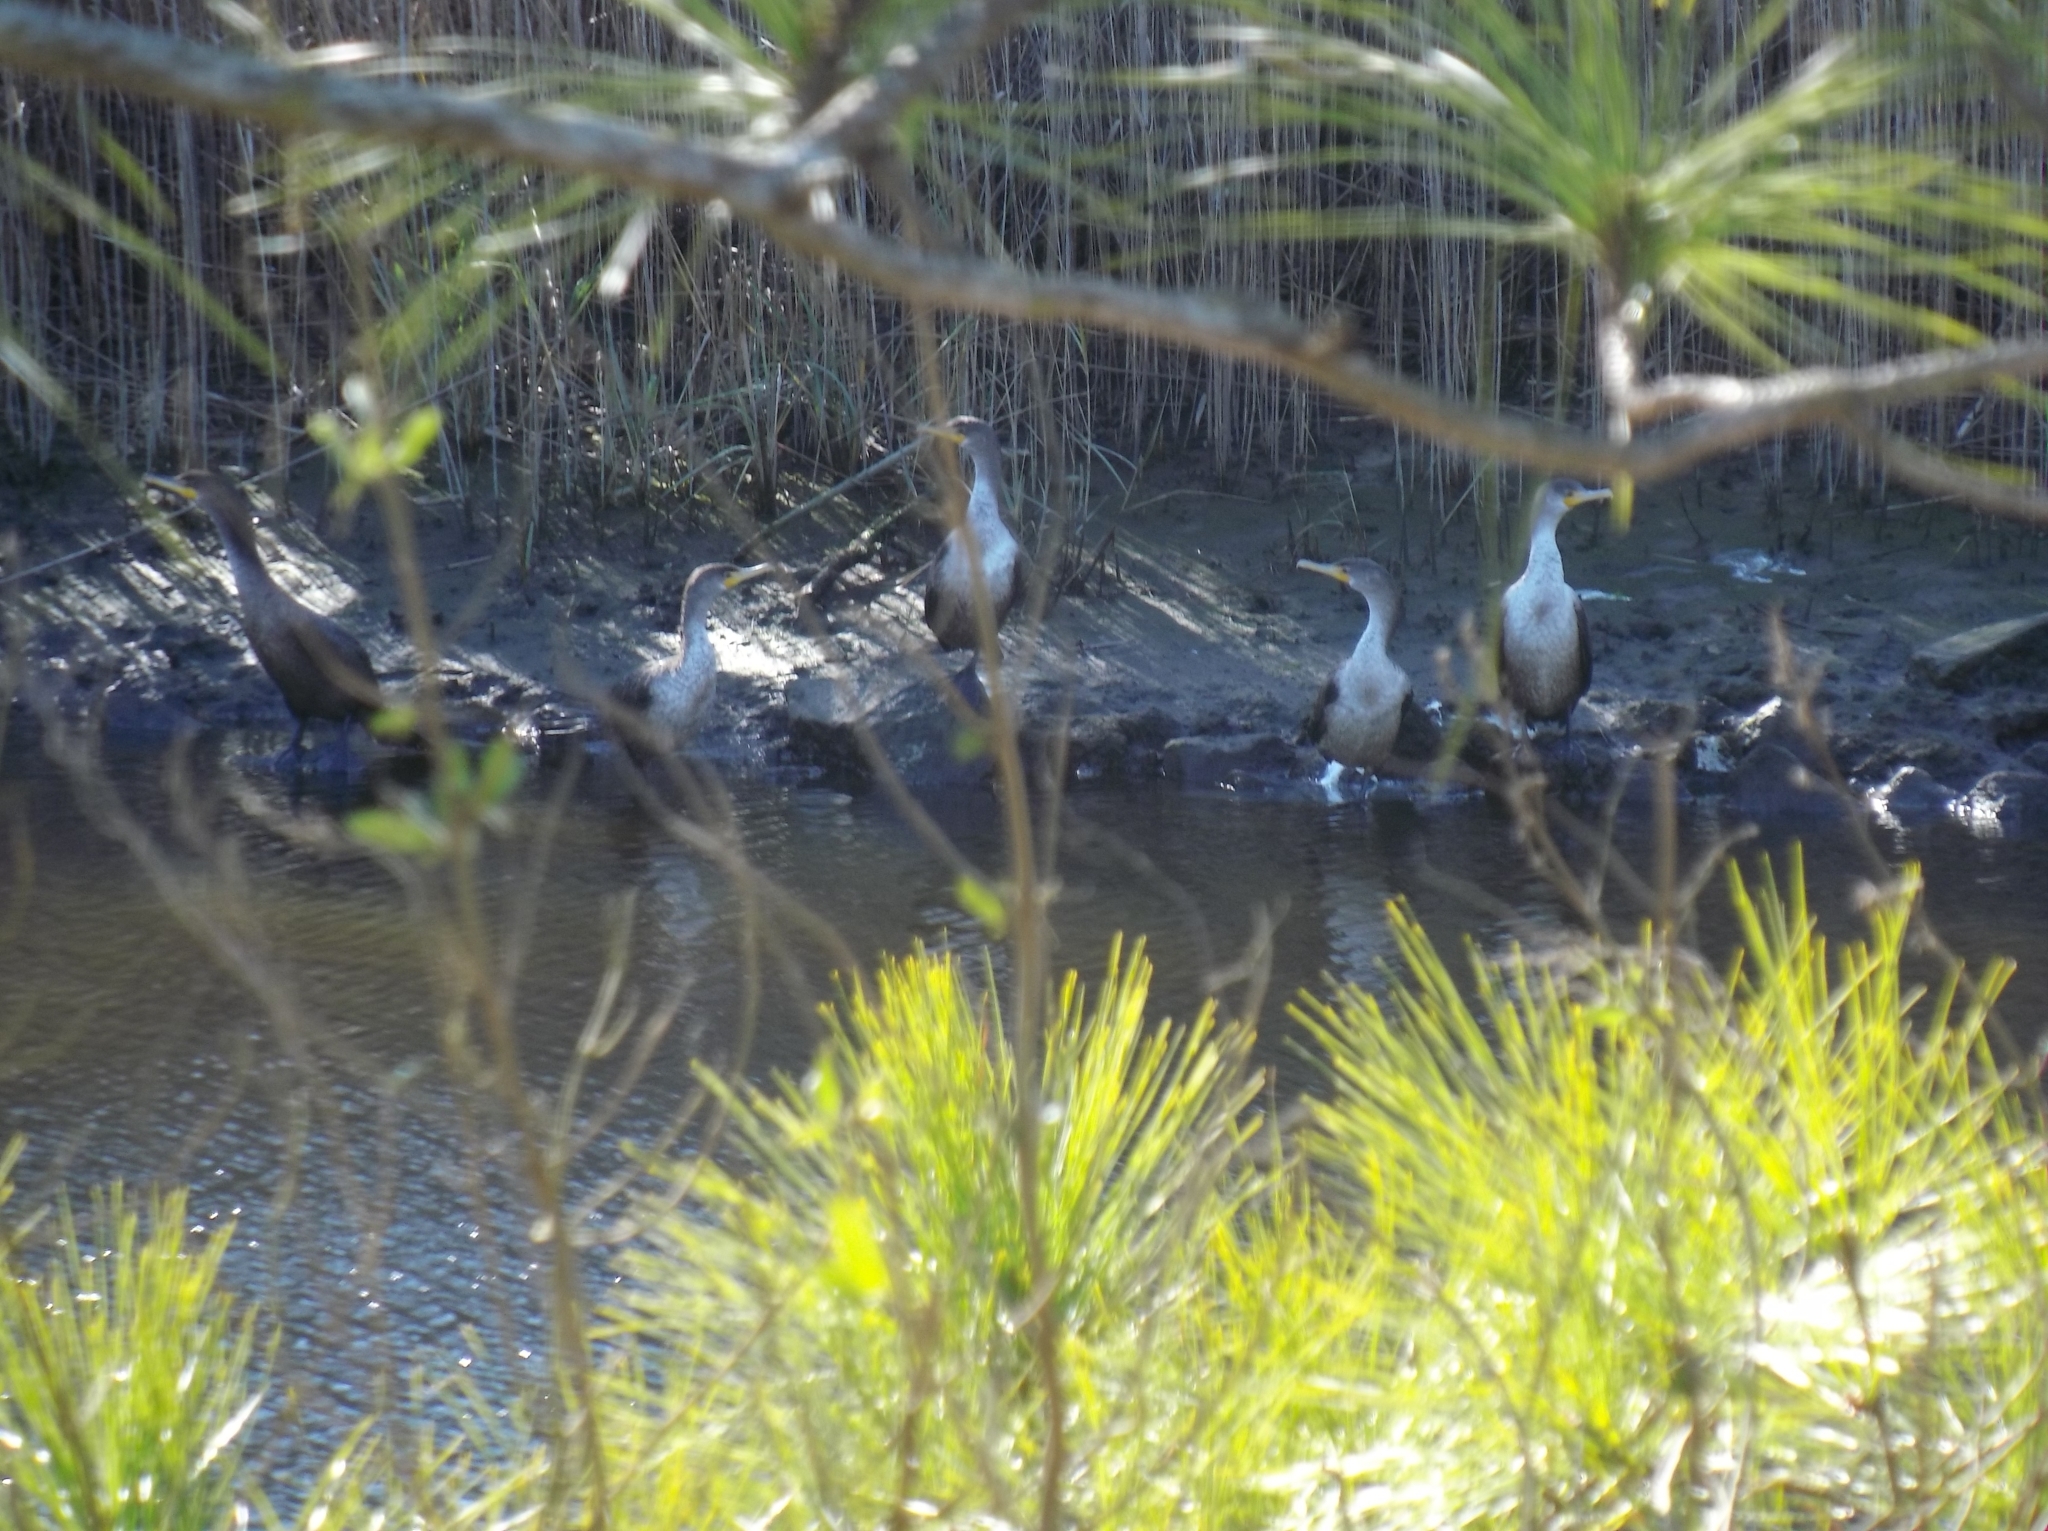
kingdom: Animalia
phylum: Chordata
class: Aves
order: Suliformes
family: Phalacrocoracidae
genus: Phalacrocorax
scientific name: Phalacrocorax auritus
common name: Double-crested cormorant
